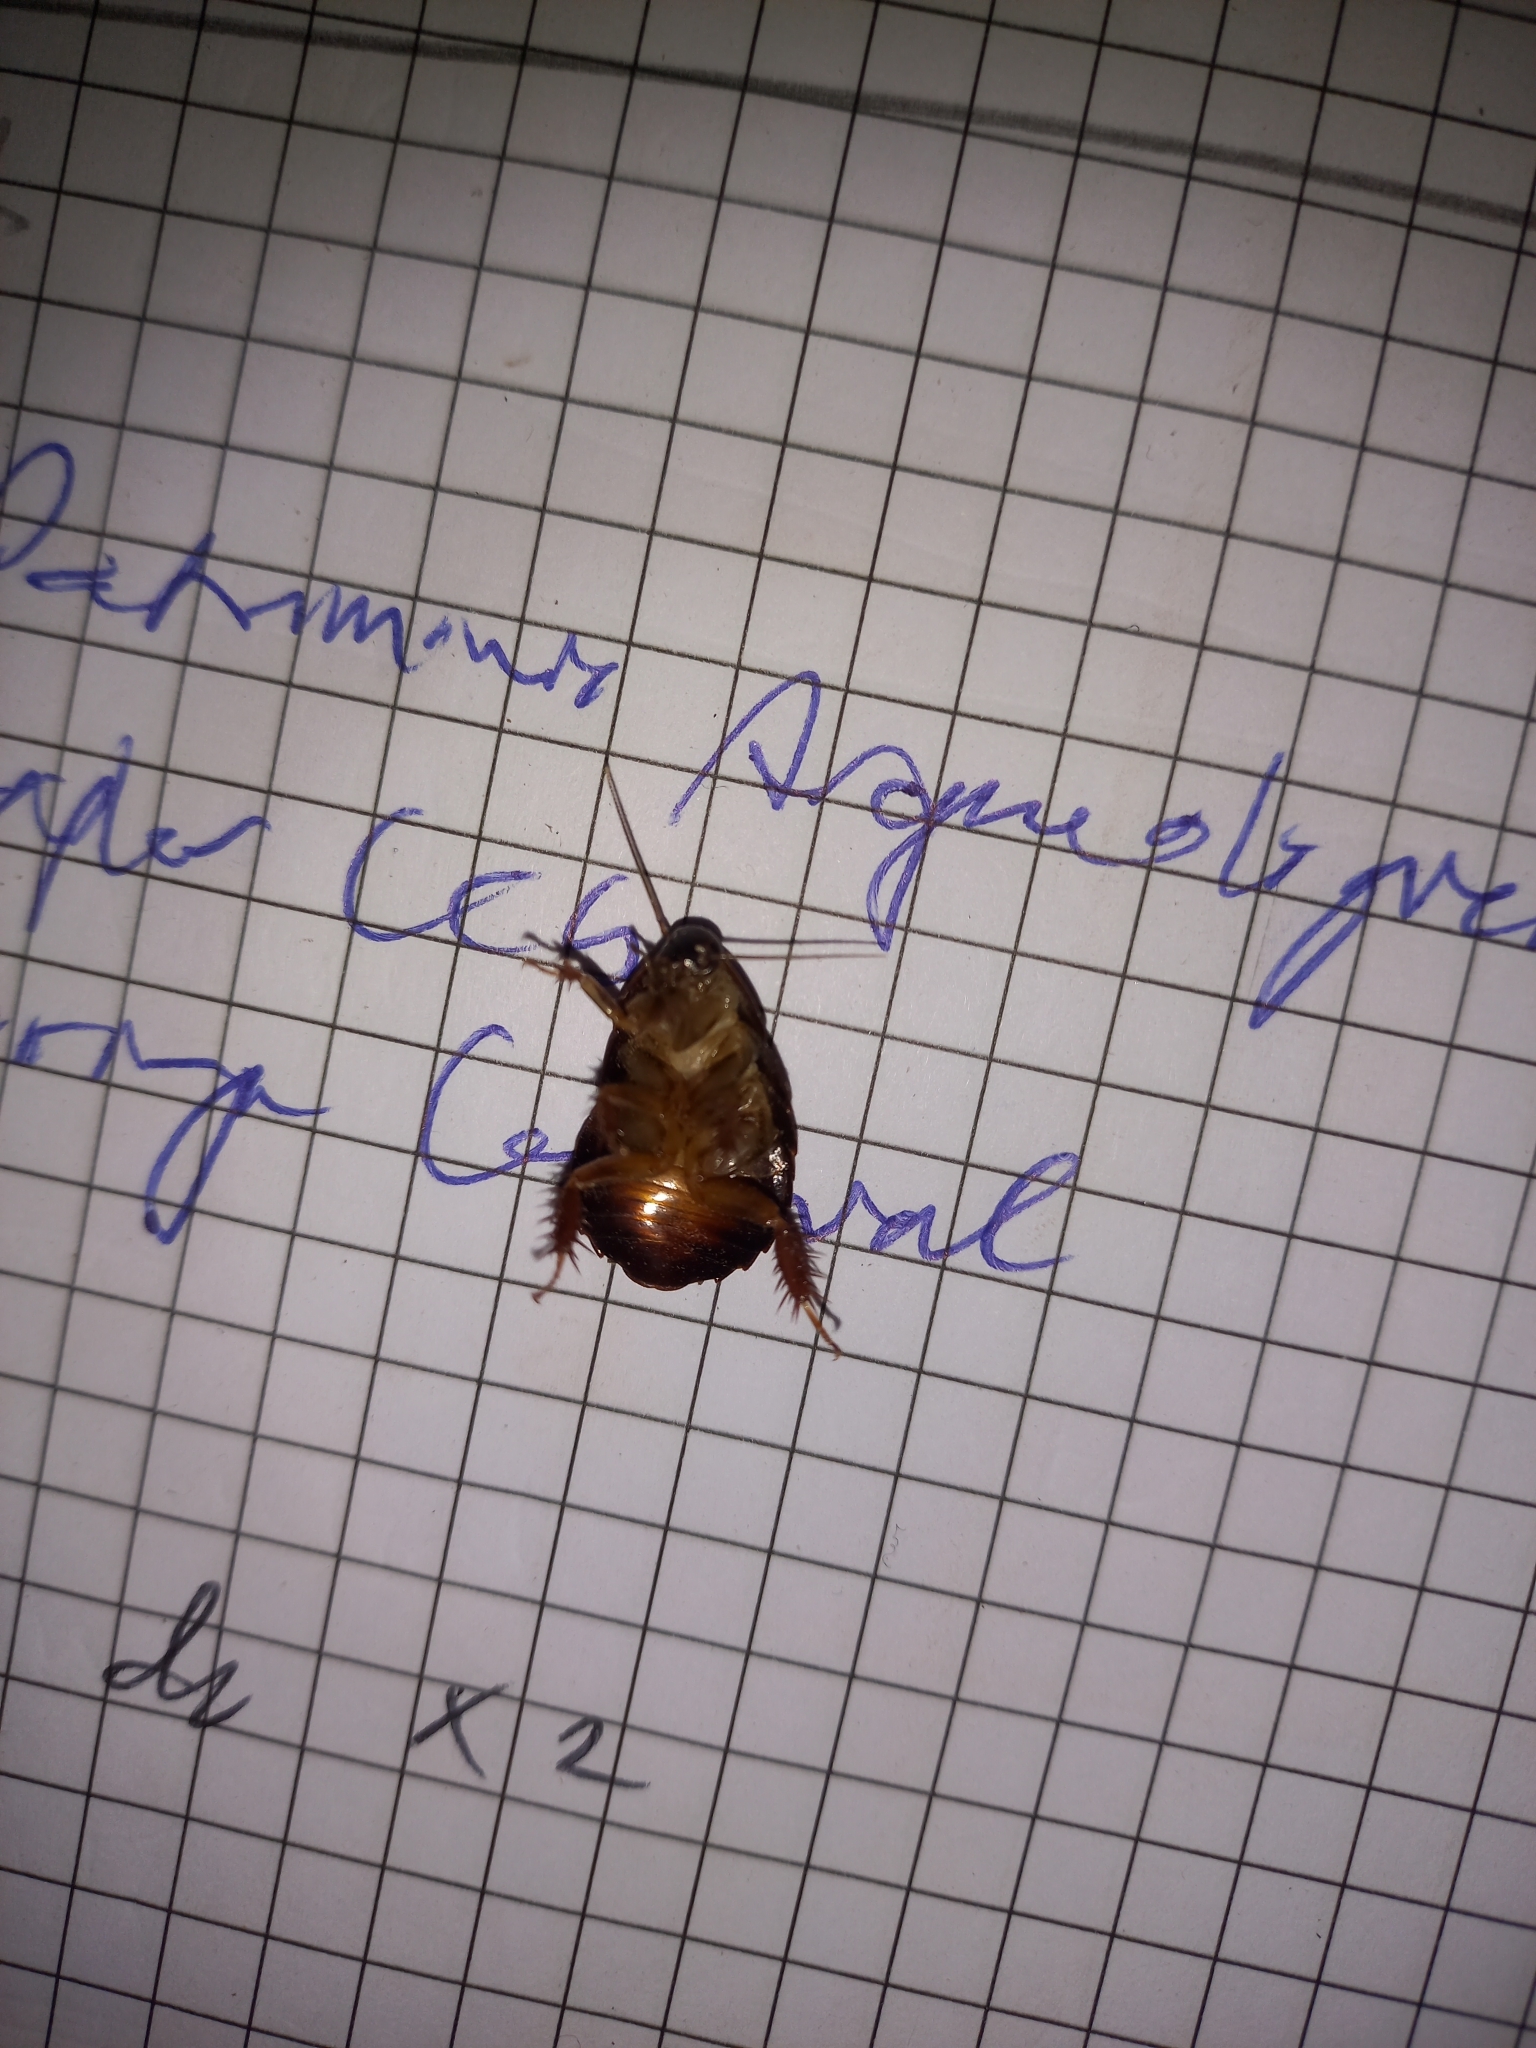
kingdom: Animalia
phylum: Arthropoda
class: Insecta
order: Blattodea
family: Blaberidae
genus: Pycnoscelus
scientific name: Pycnoscelus surinamensis
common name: Surinam cockroach
